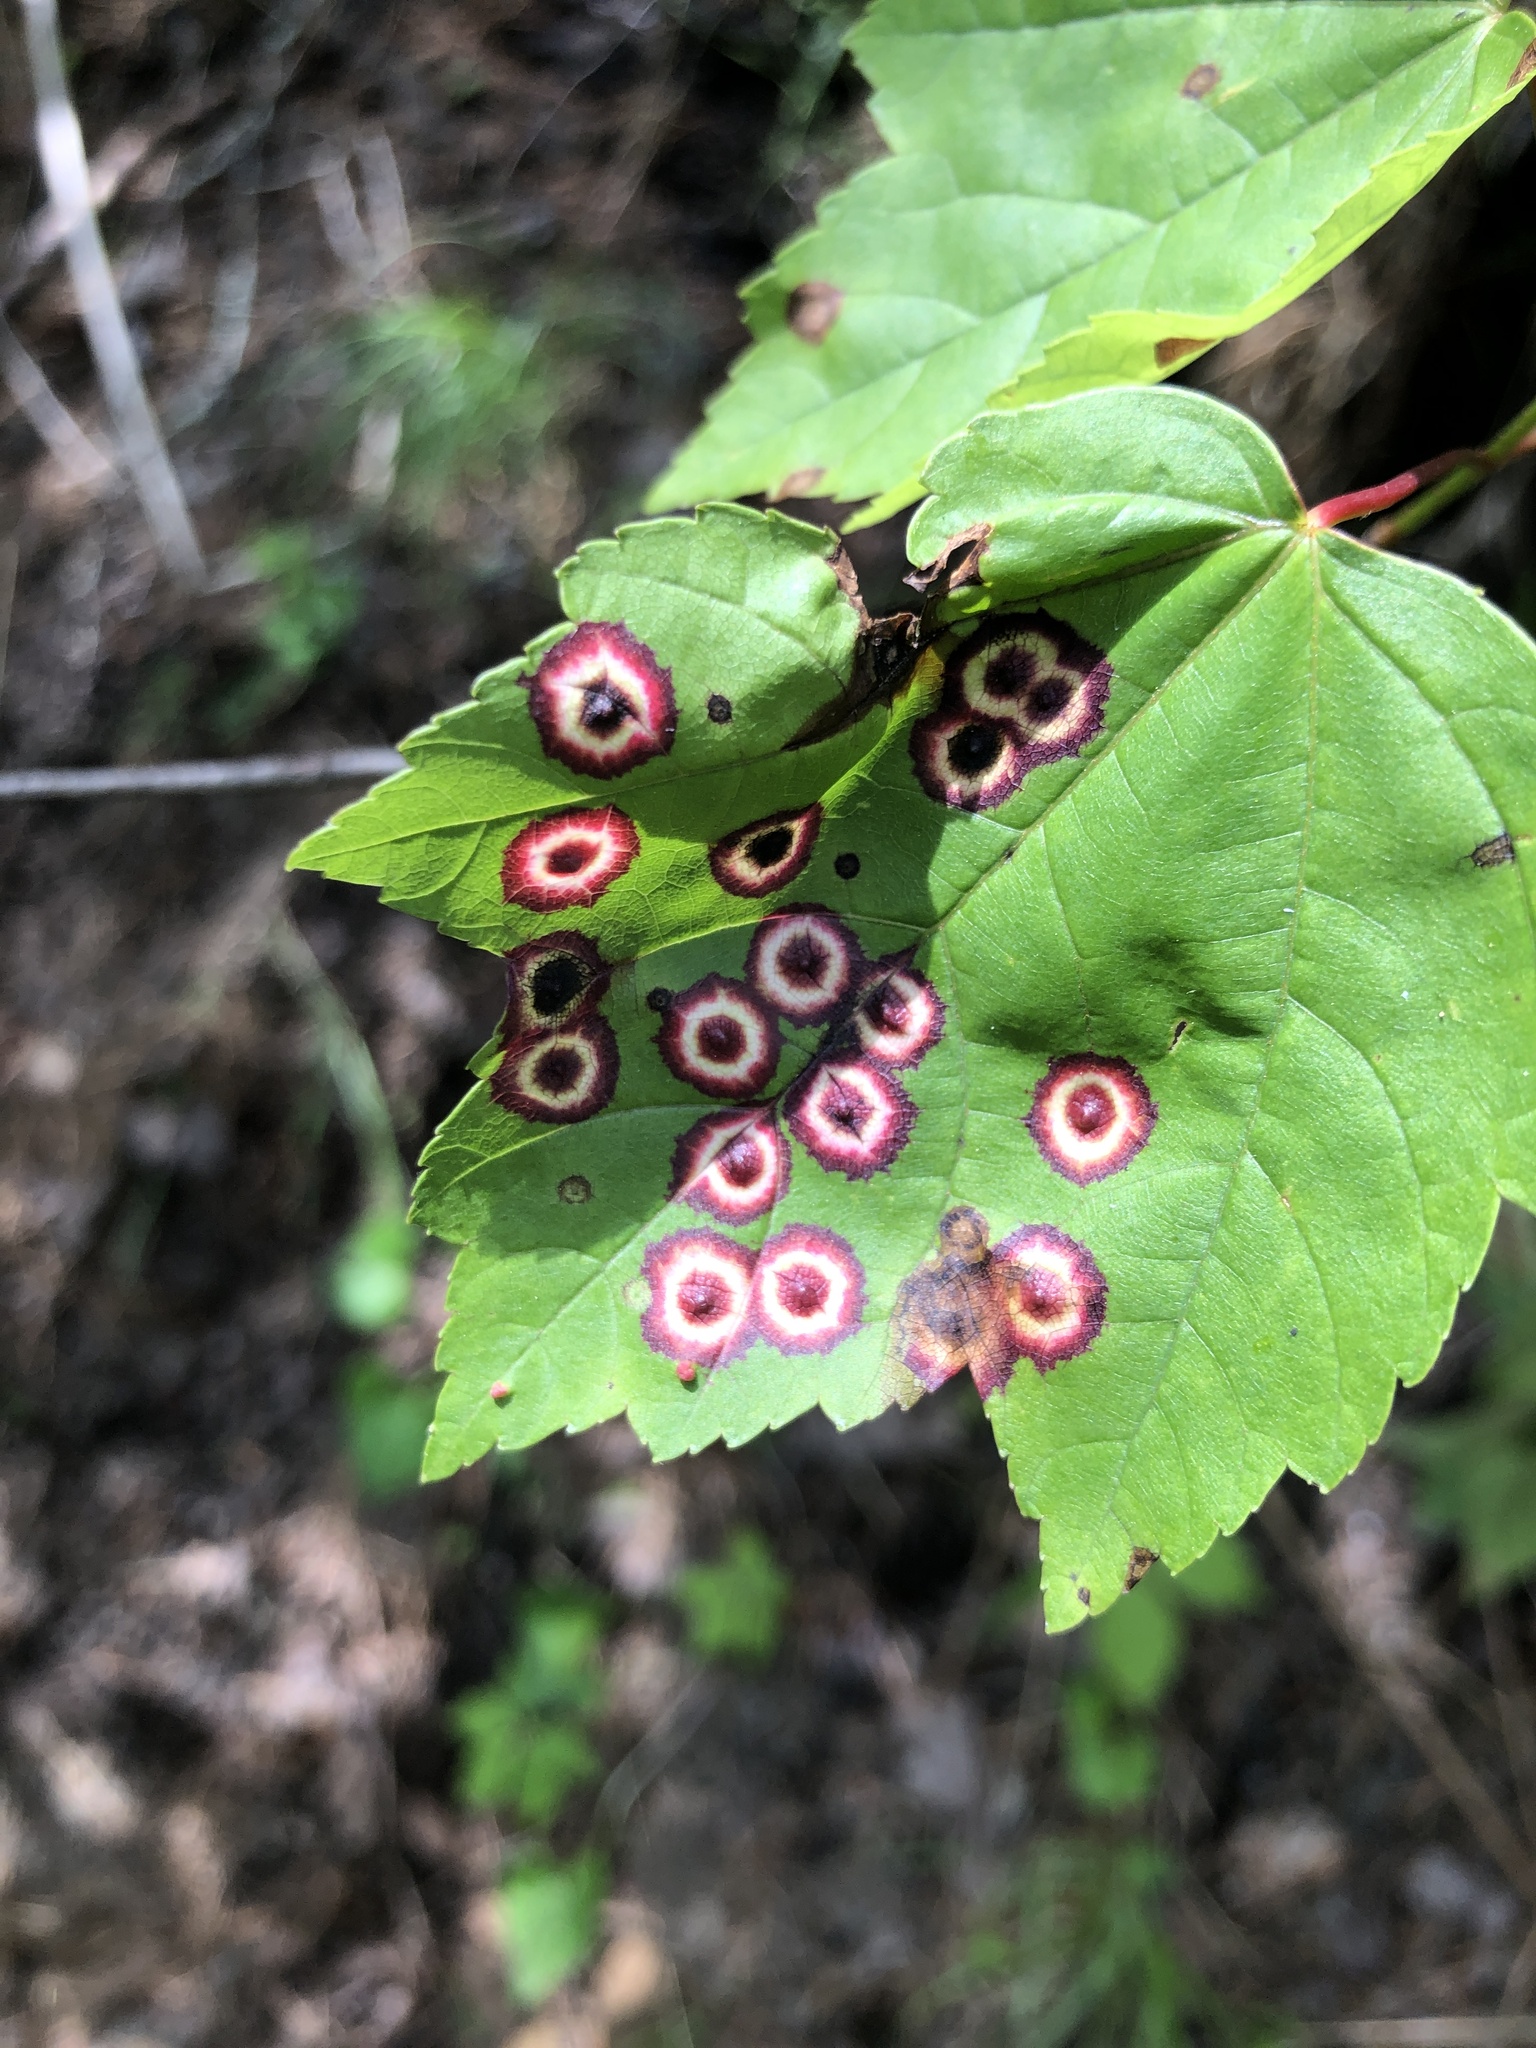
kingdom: Plantae
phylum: Tracheophyta
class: Magnoliopsida
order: Sapindales
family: Sapindaceae
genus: Acer
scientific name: Acer rubrum
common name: Red maple
